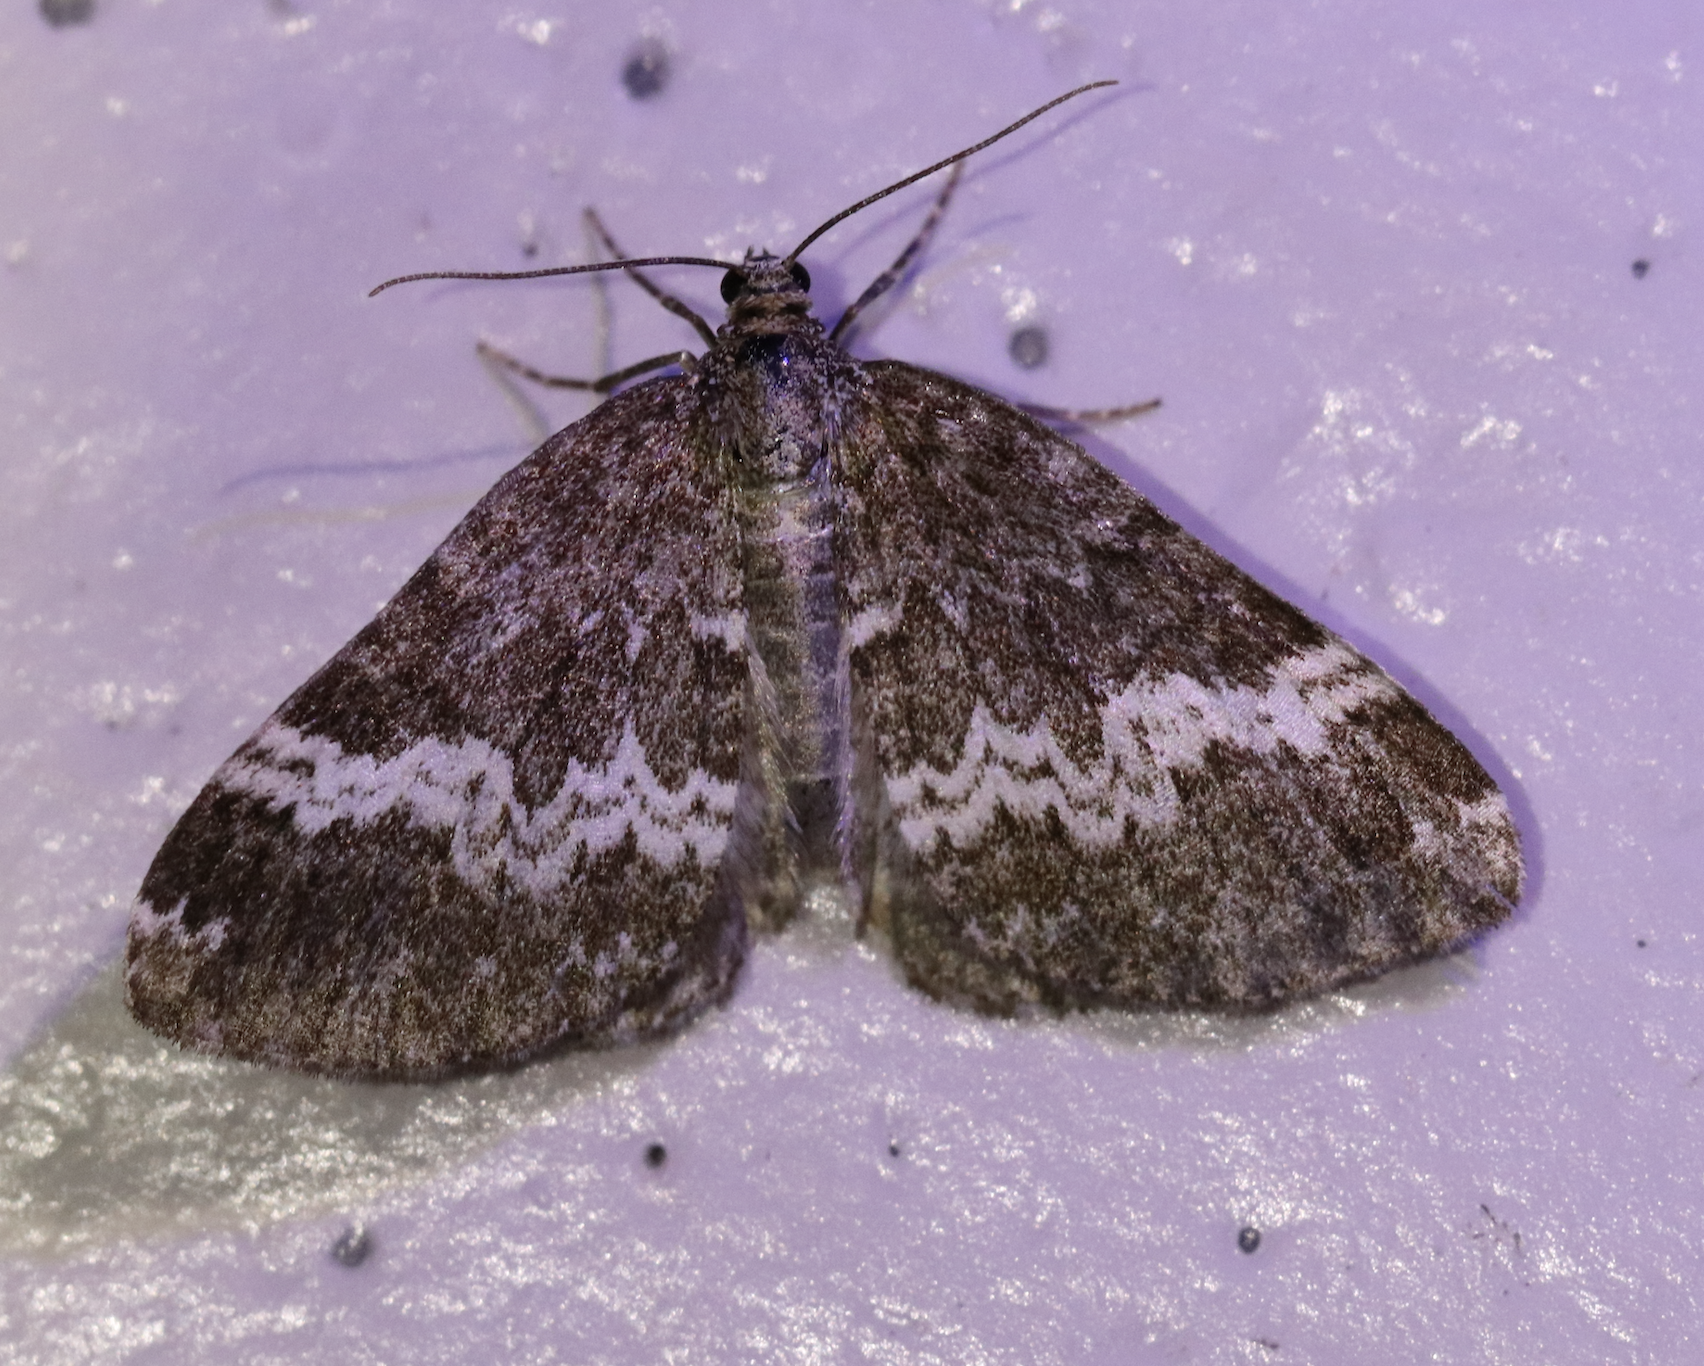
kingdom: Animalia
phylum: Arthropoda
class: Insecta
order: Lepidoptera
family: Geometridae
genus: Perizoma
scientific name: Perizoma alchemillata
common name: Small rivulet
